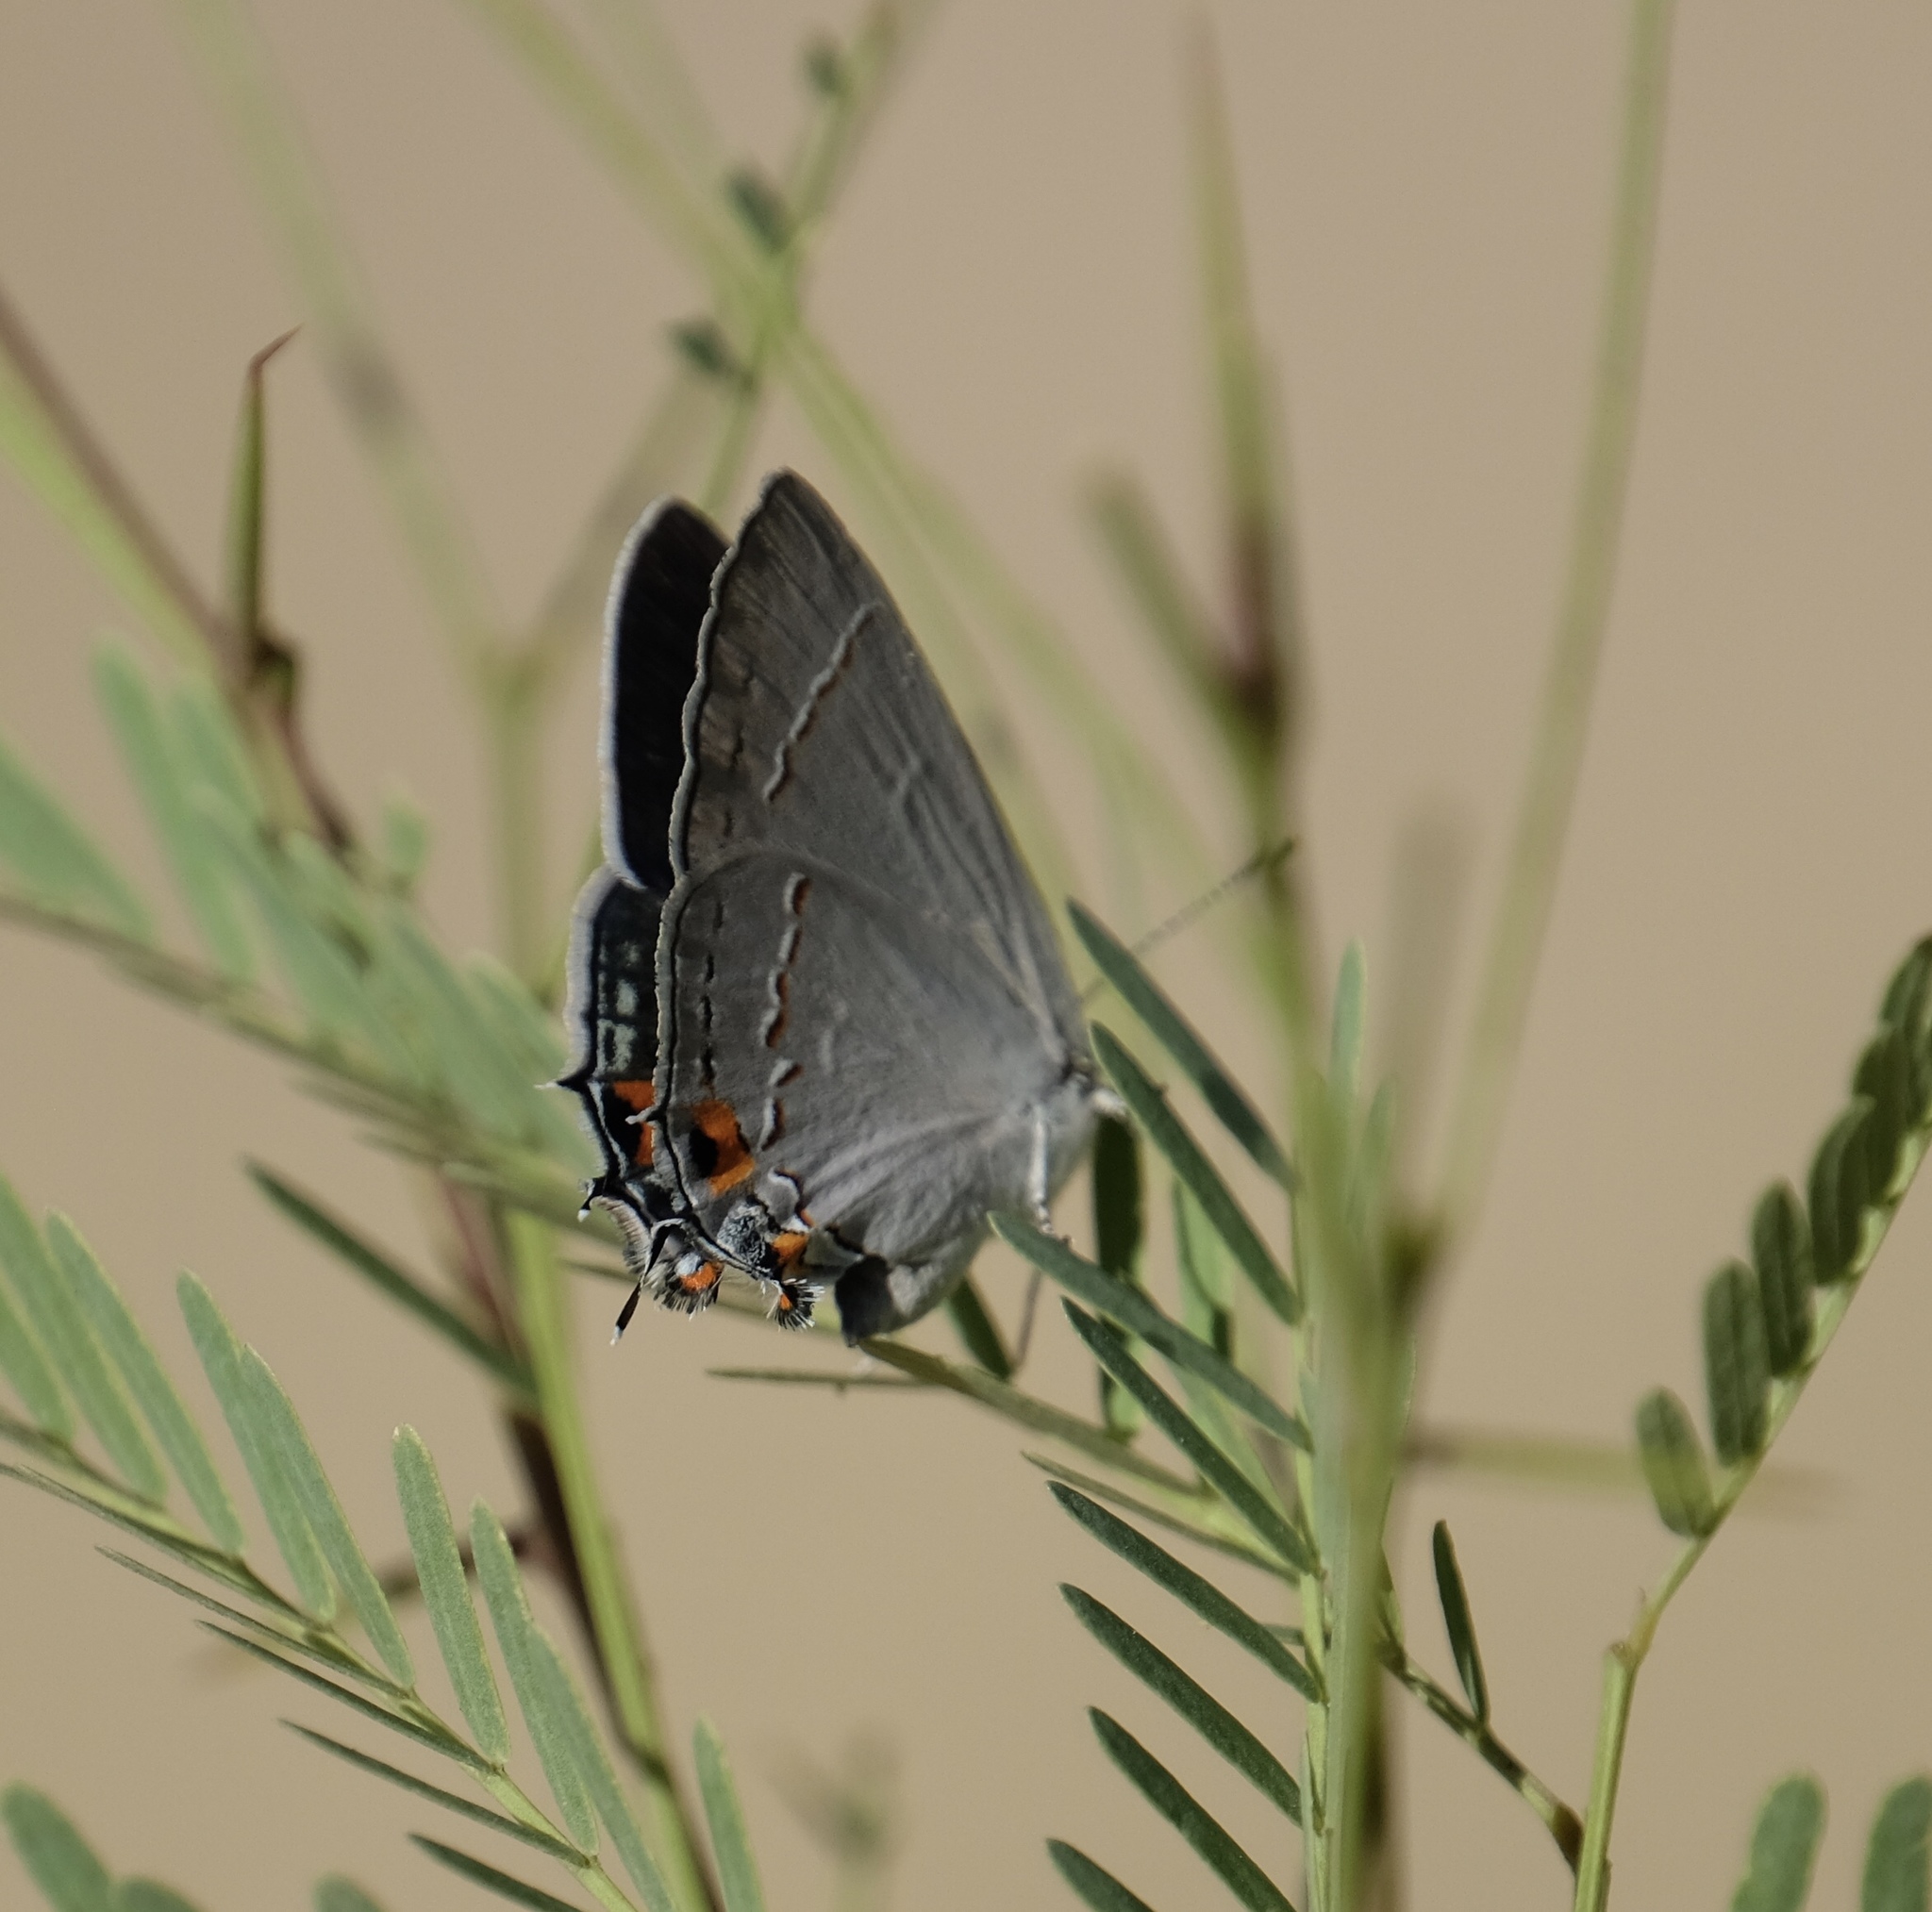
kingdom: Animalia
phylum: Arthropoda
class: Insecta
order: Lepidoptera
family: Lycaenidae
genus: Strymon
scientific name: Strymon melinus
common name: Gray hairstreak
